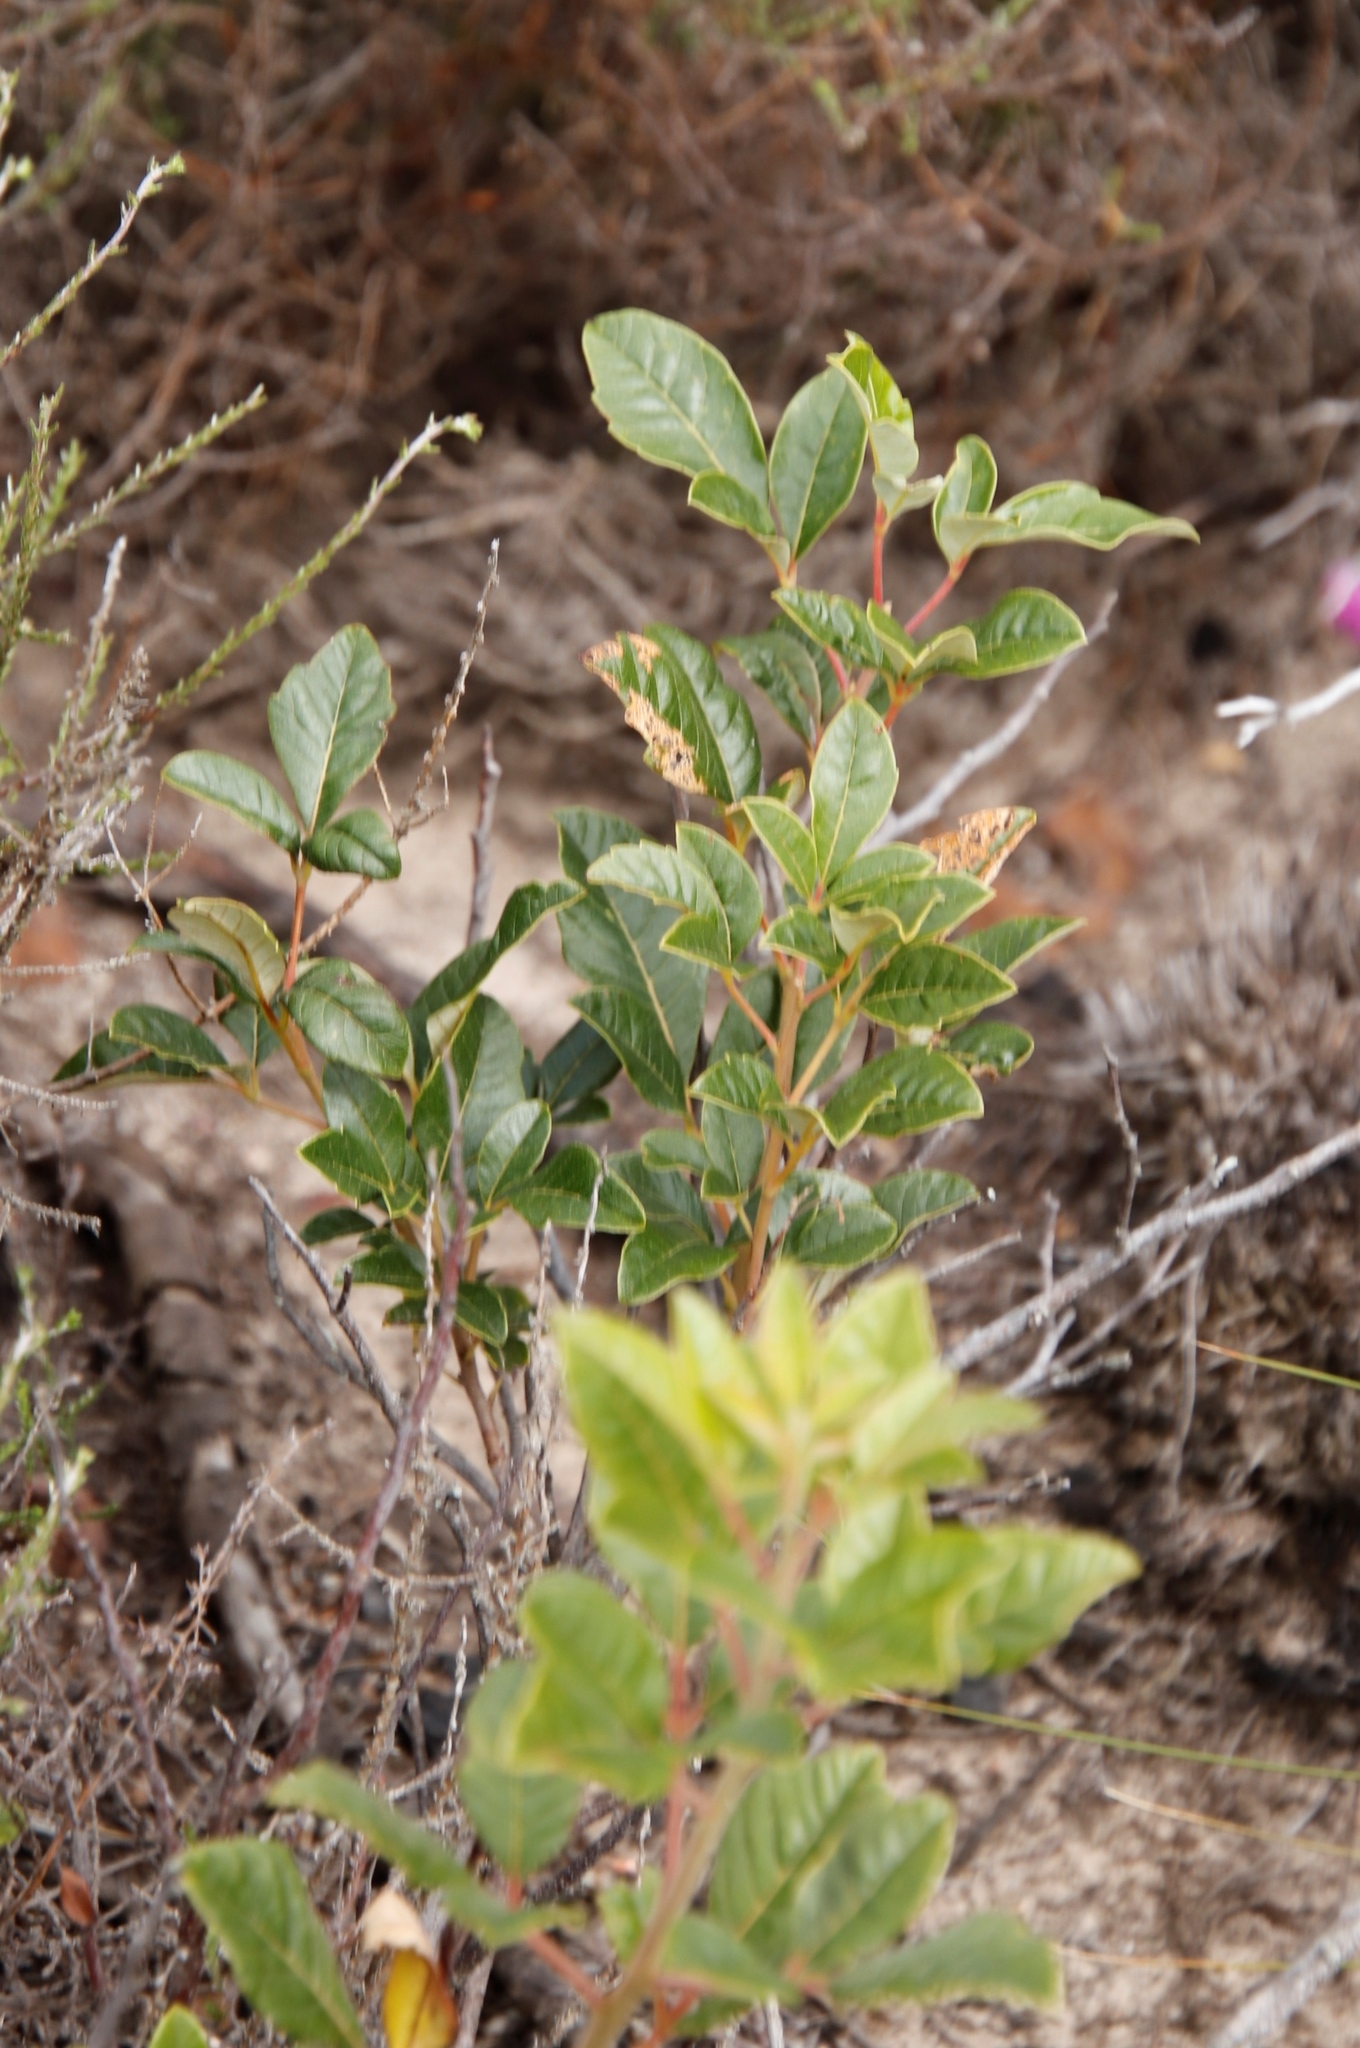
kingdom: Plantae
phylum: Tracheophyta
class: Magnoliopsida
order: Sapindales
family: Anacardiaceae
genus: Searsia
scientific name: Searsia tomentosa
